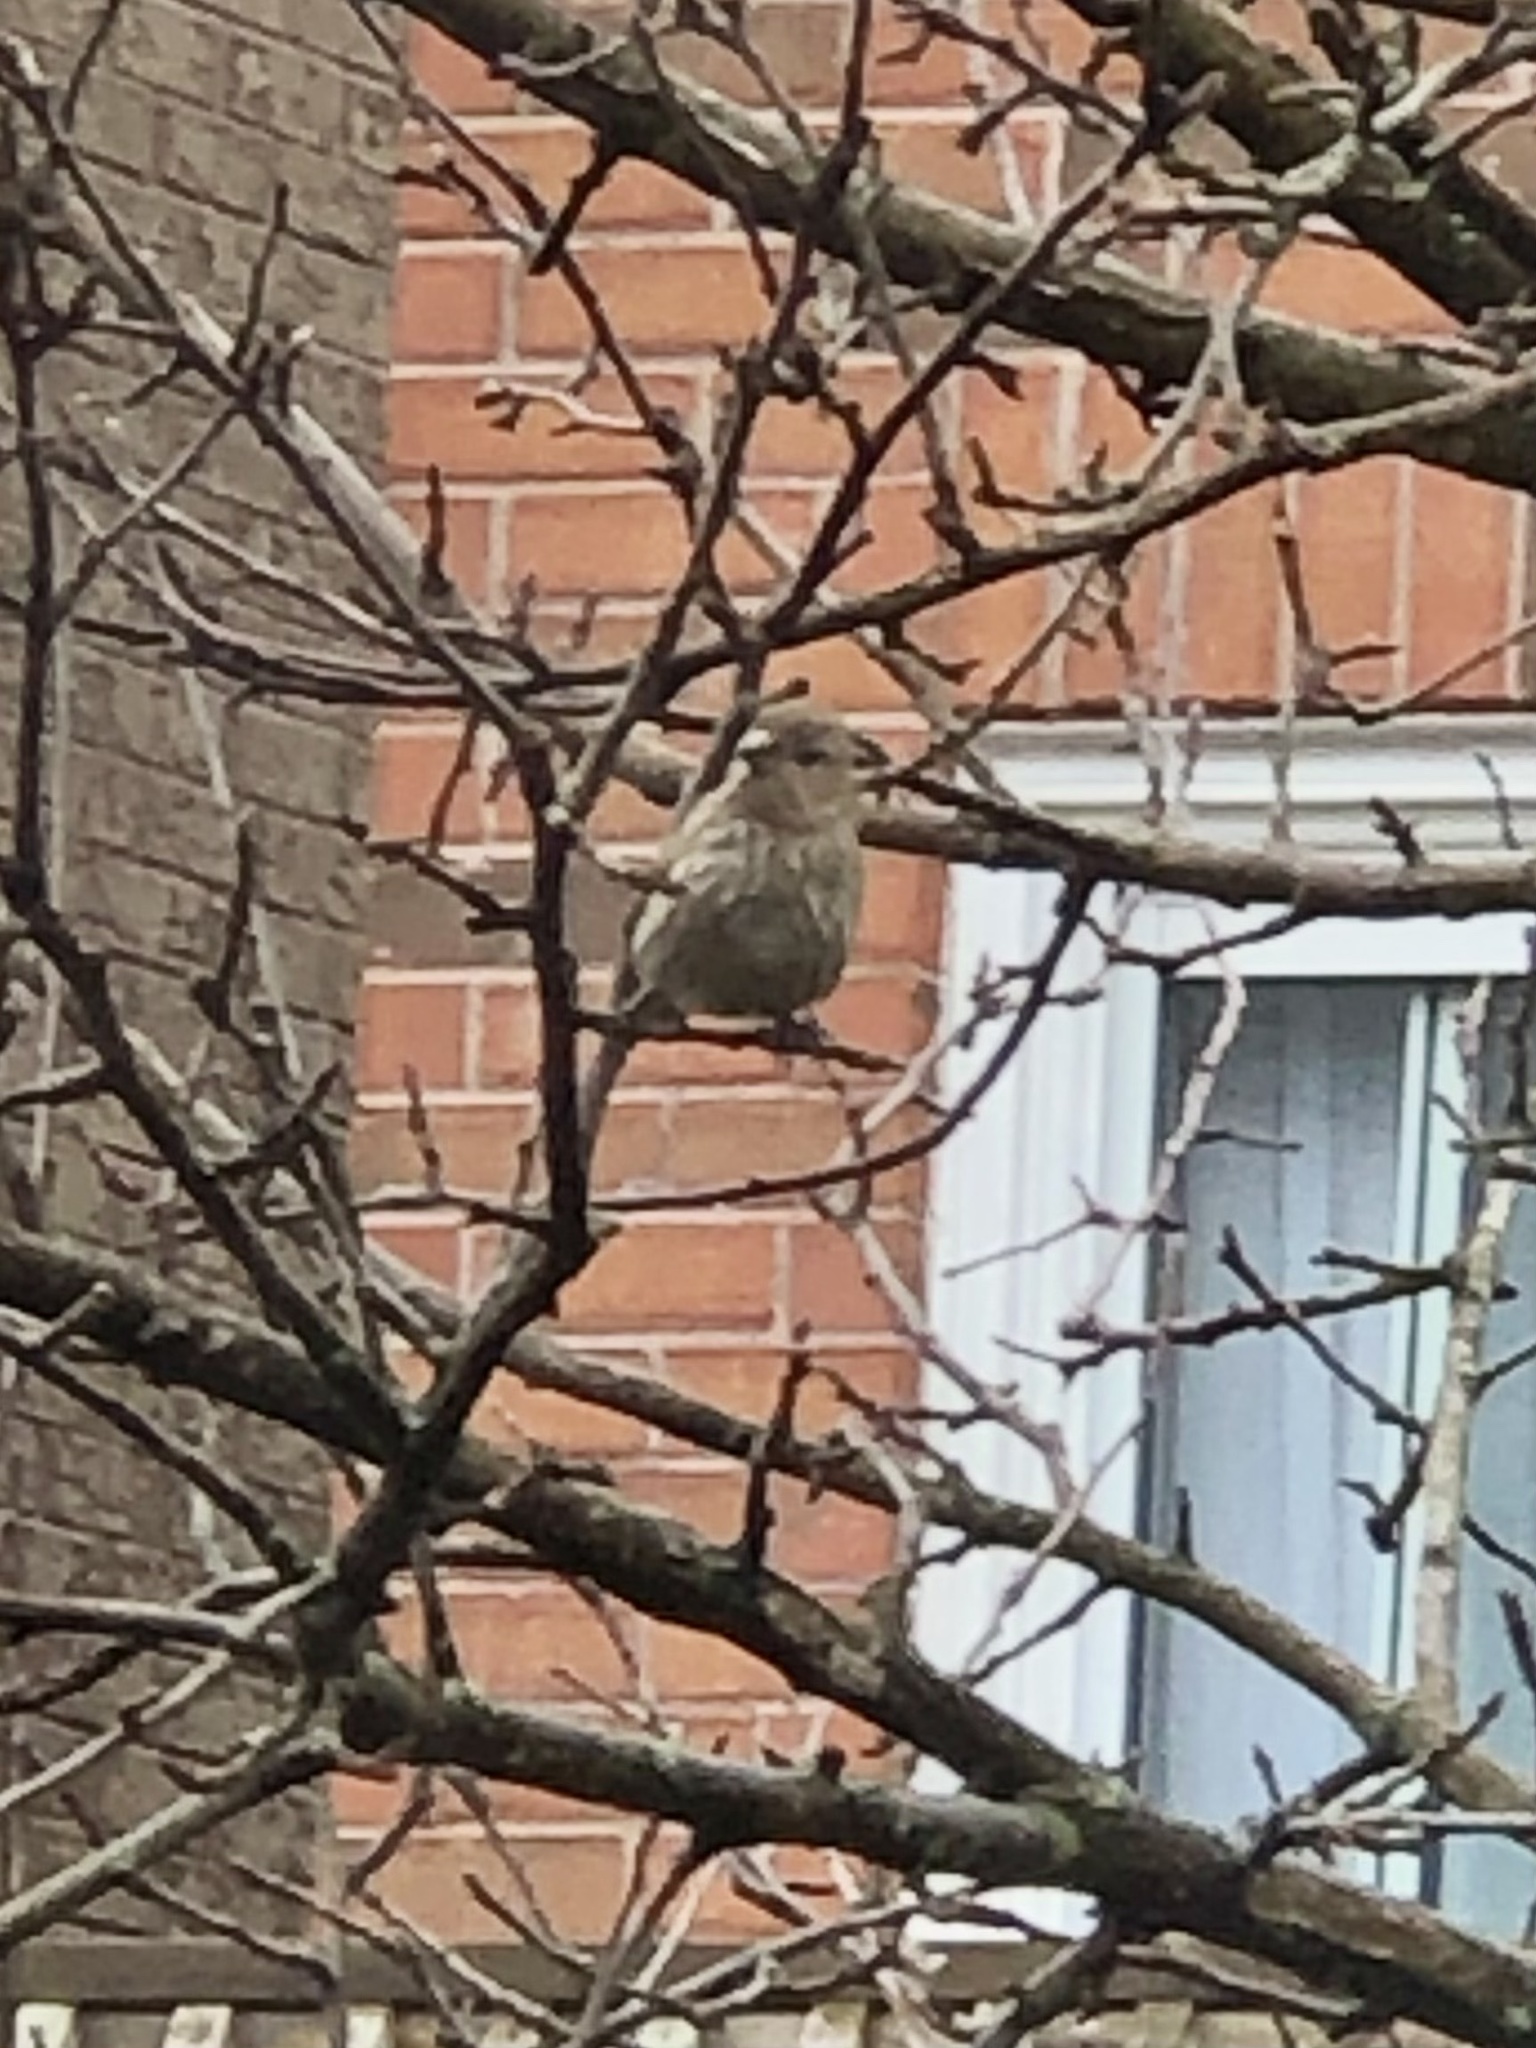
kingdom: Animalia
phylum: Chordata
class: Aves
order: Passeriformes
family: Fringillidae
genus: Haemorhous
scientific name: Haemorhous mexicanus
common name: House finch
